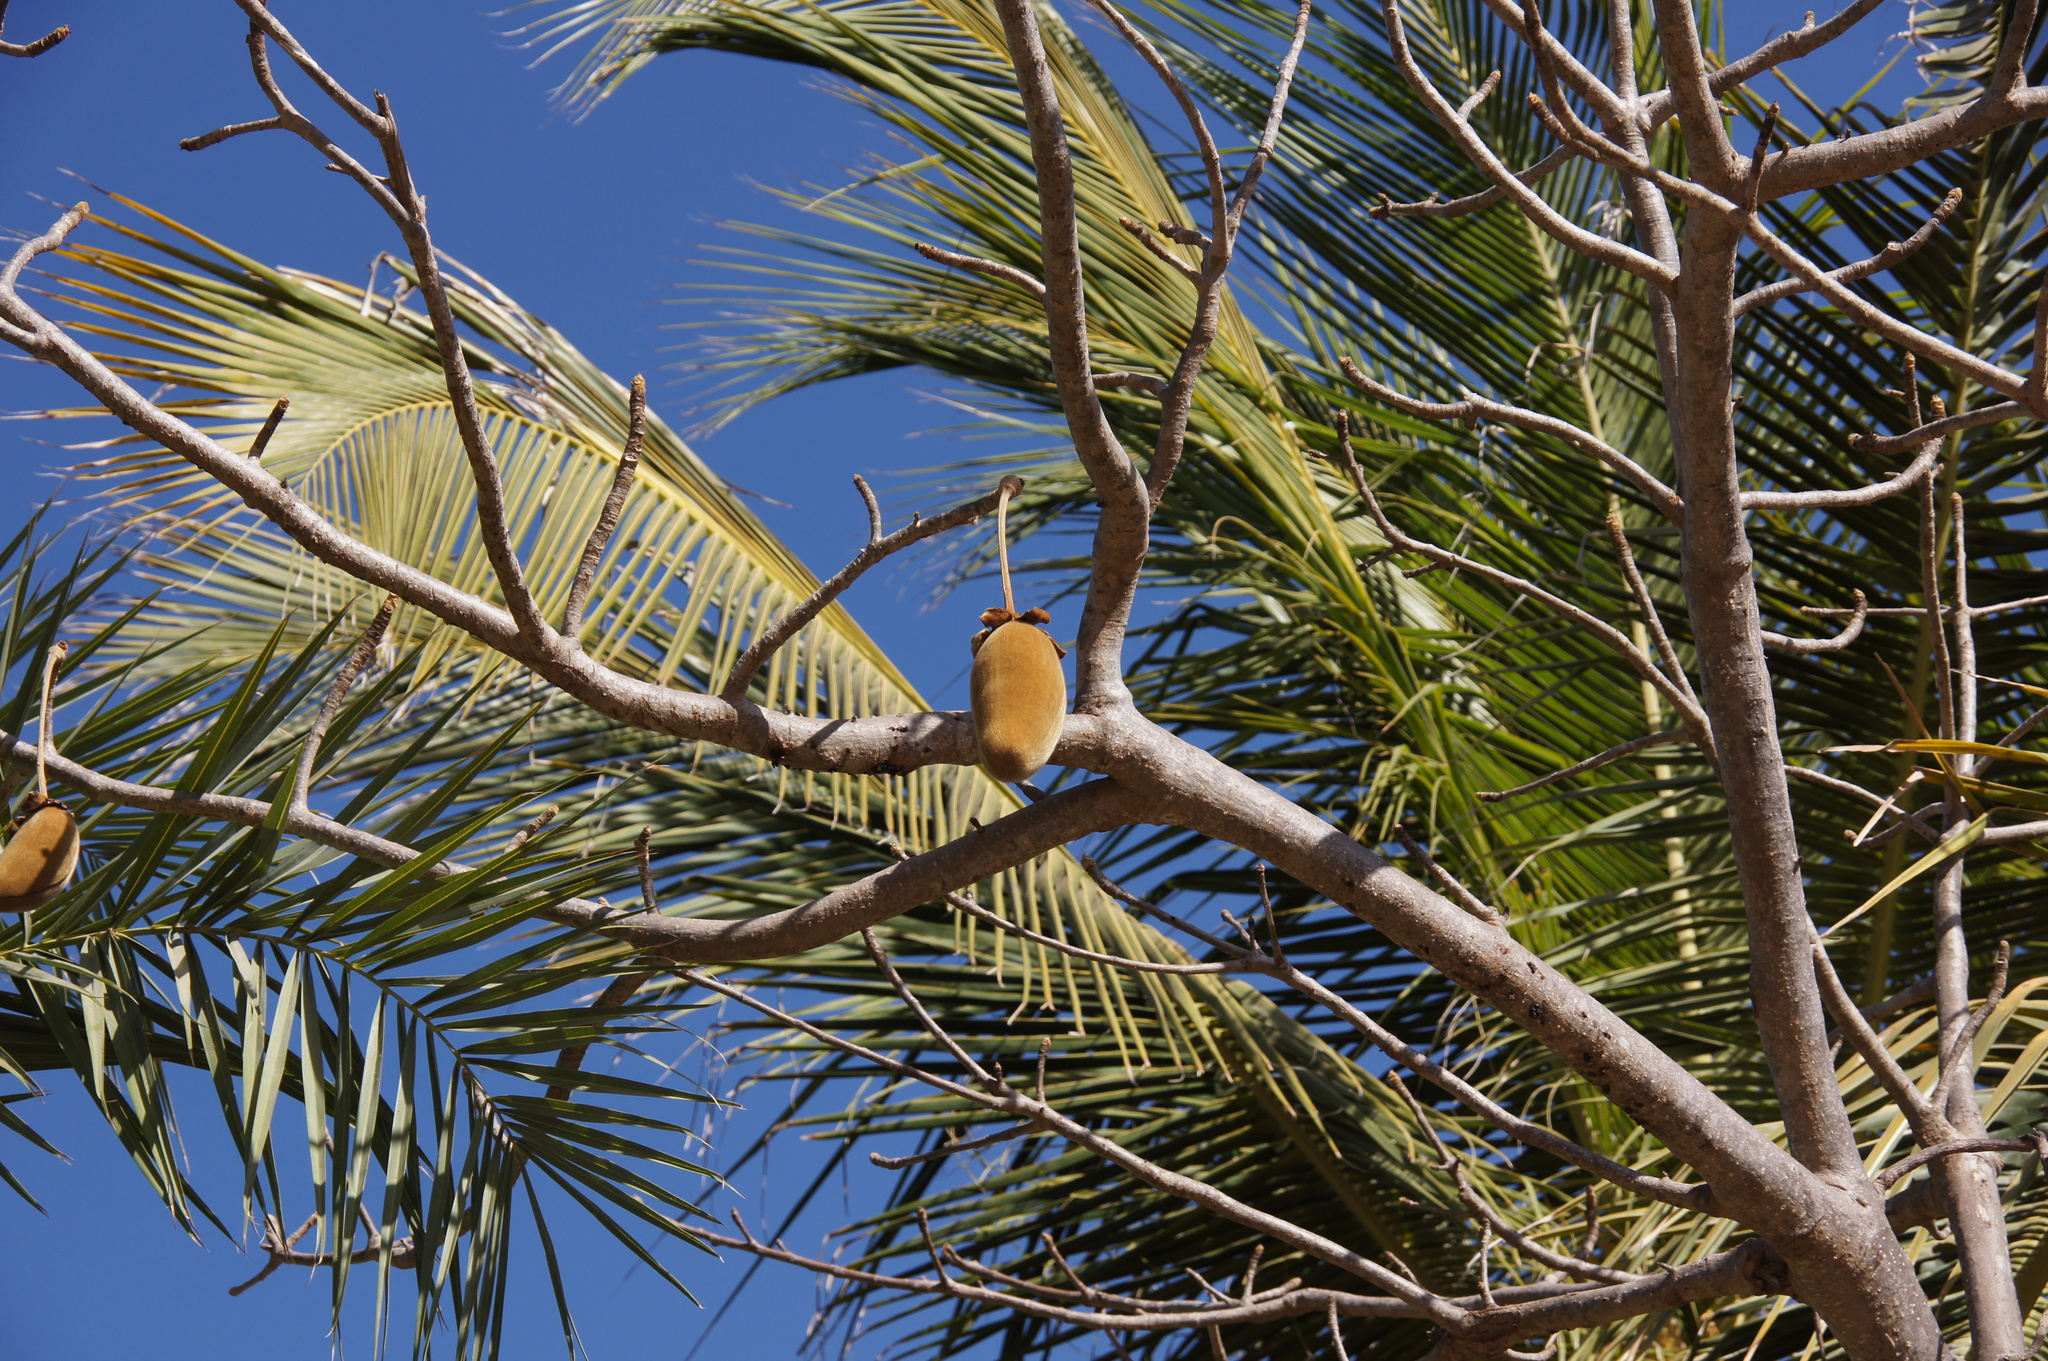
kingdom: Plantae
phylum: Tracheophyta
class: Magnoliopsida
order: Malvales
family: Malvaceae
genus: Adansonia
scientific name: Adansonia digitata
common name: Dead-rat-tree
